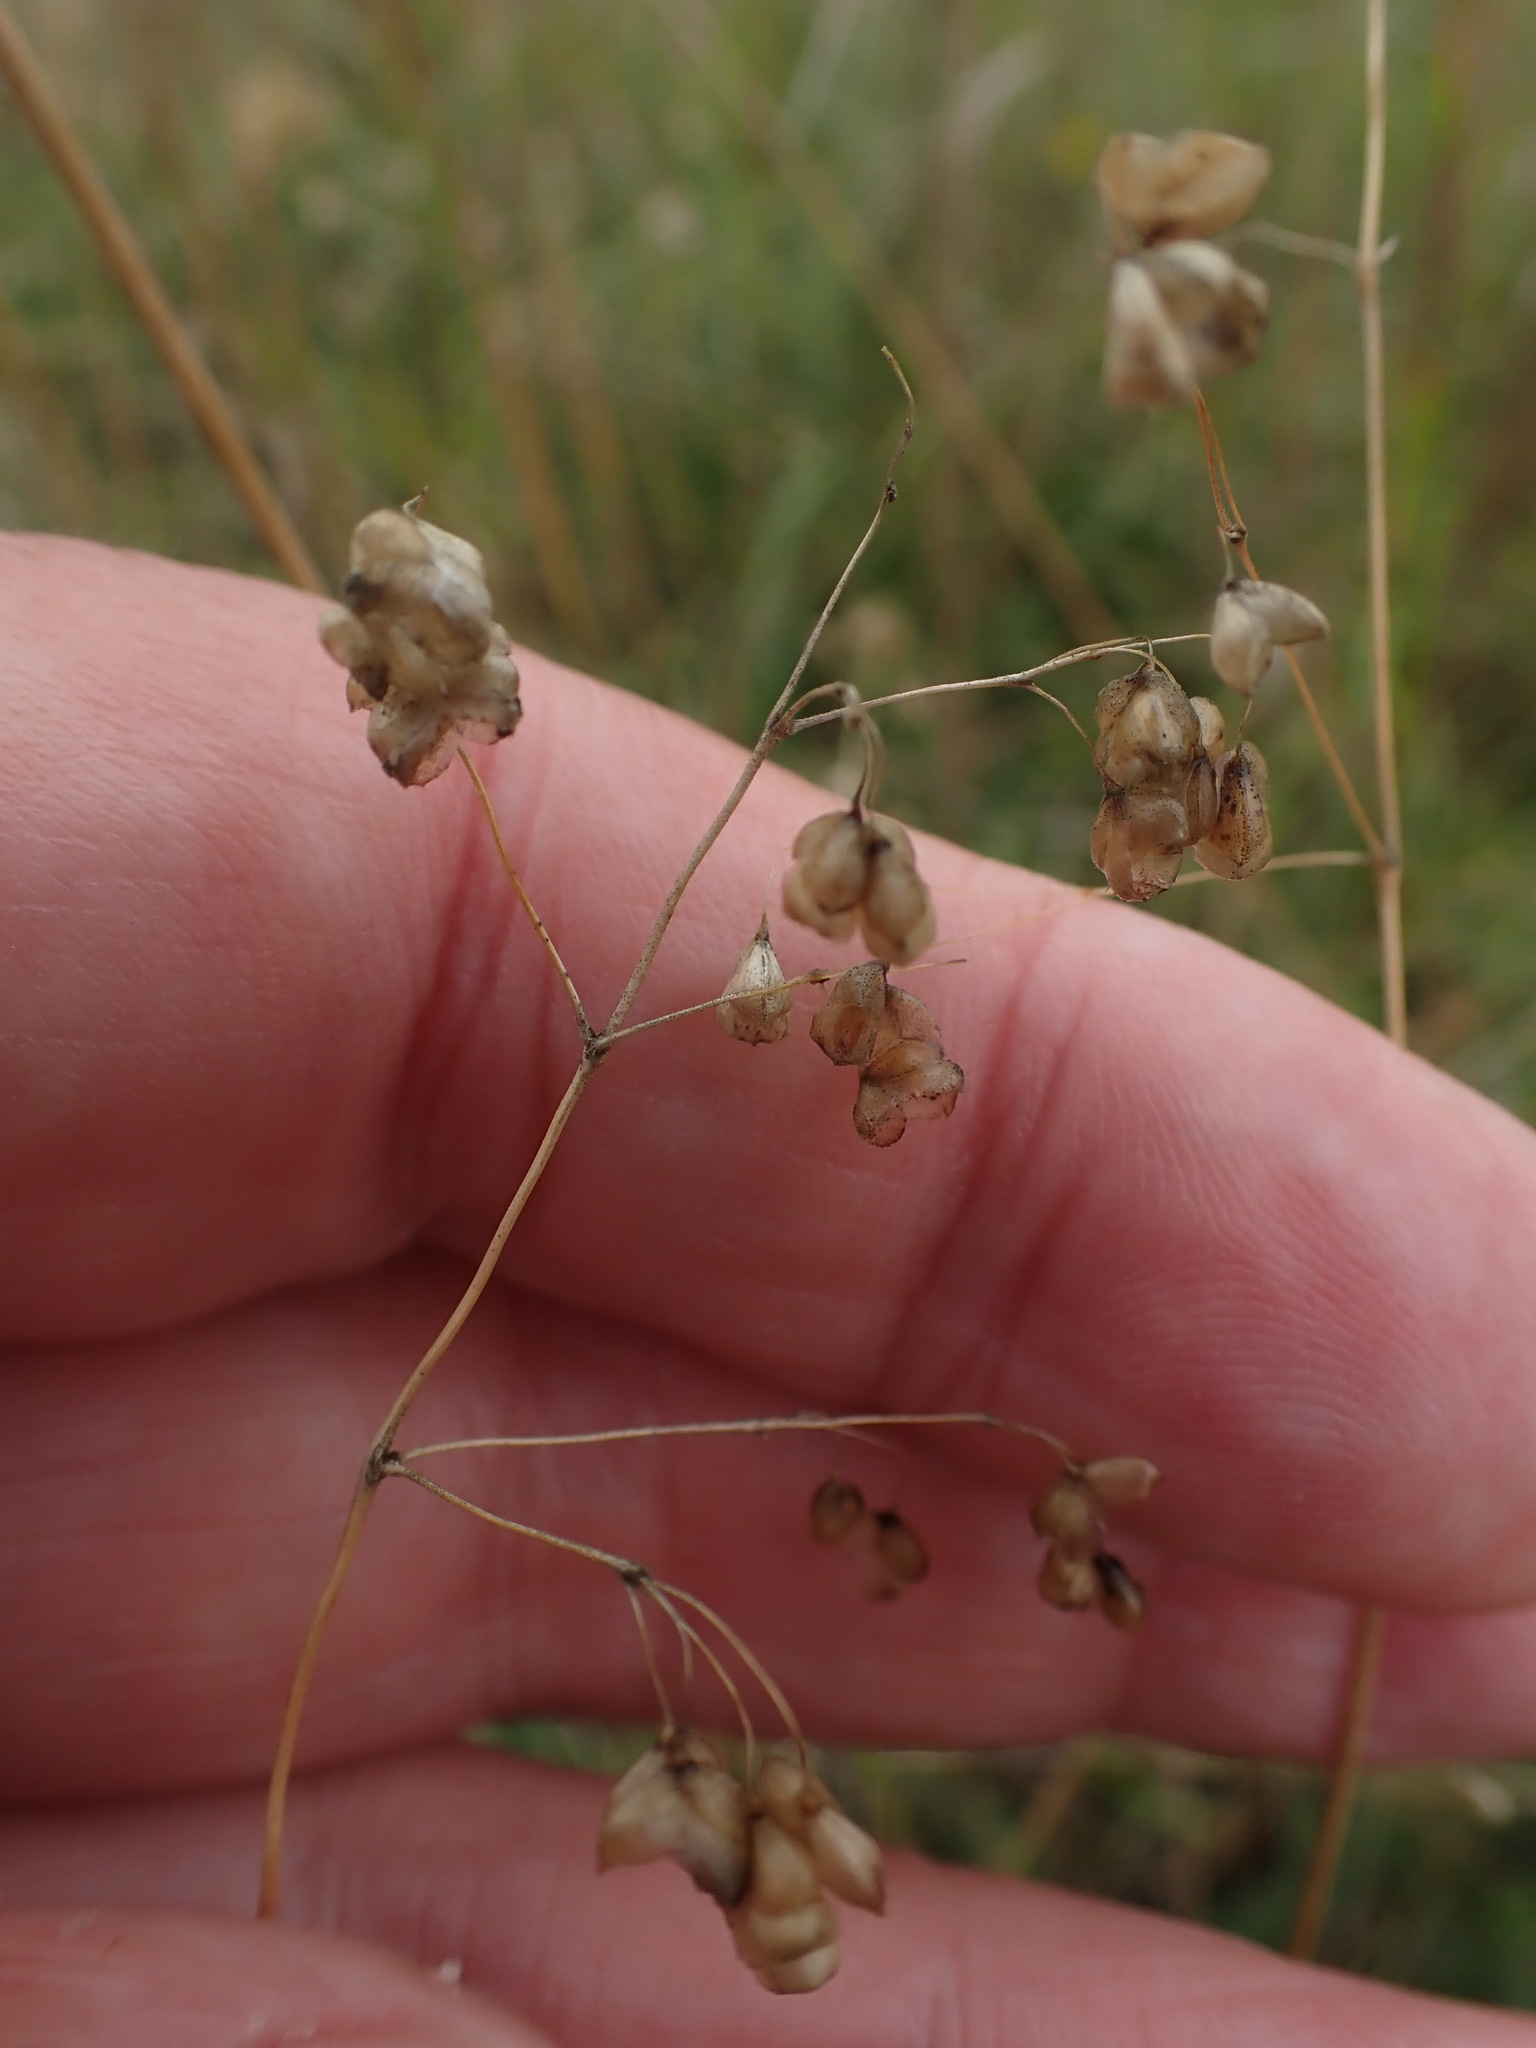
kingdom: Plantae
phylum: Tracheophyta
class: Liliopsida
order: Poales
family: Poaceae
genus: Briza
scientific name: Briza media
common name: Quaking grass
